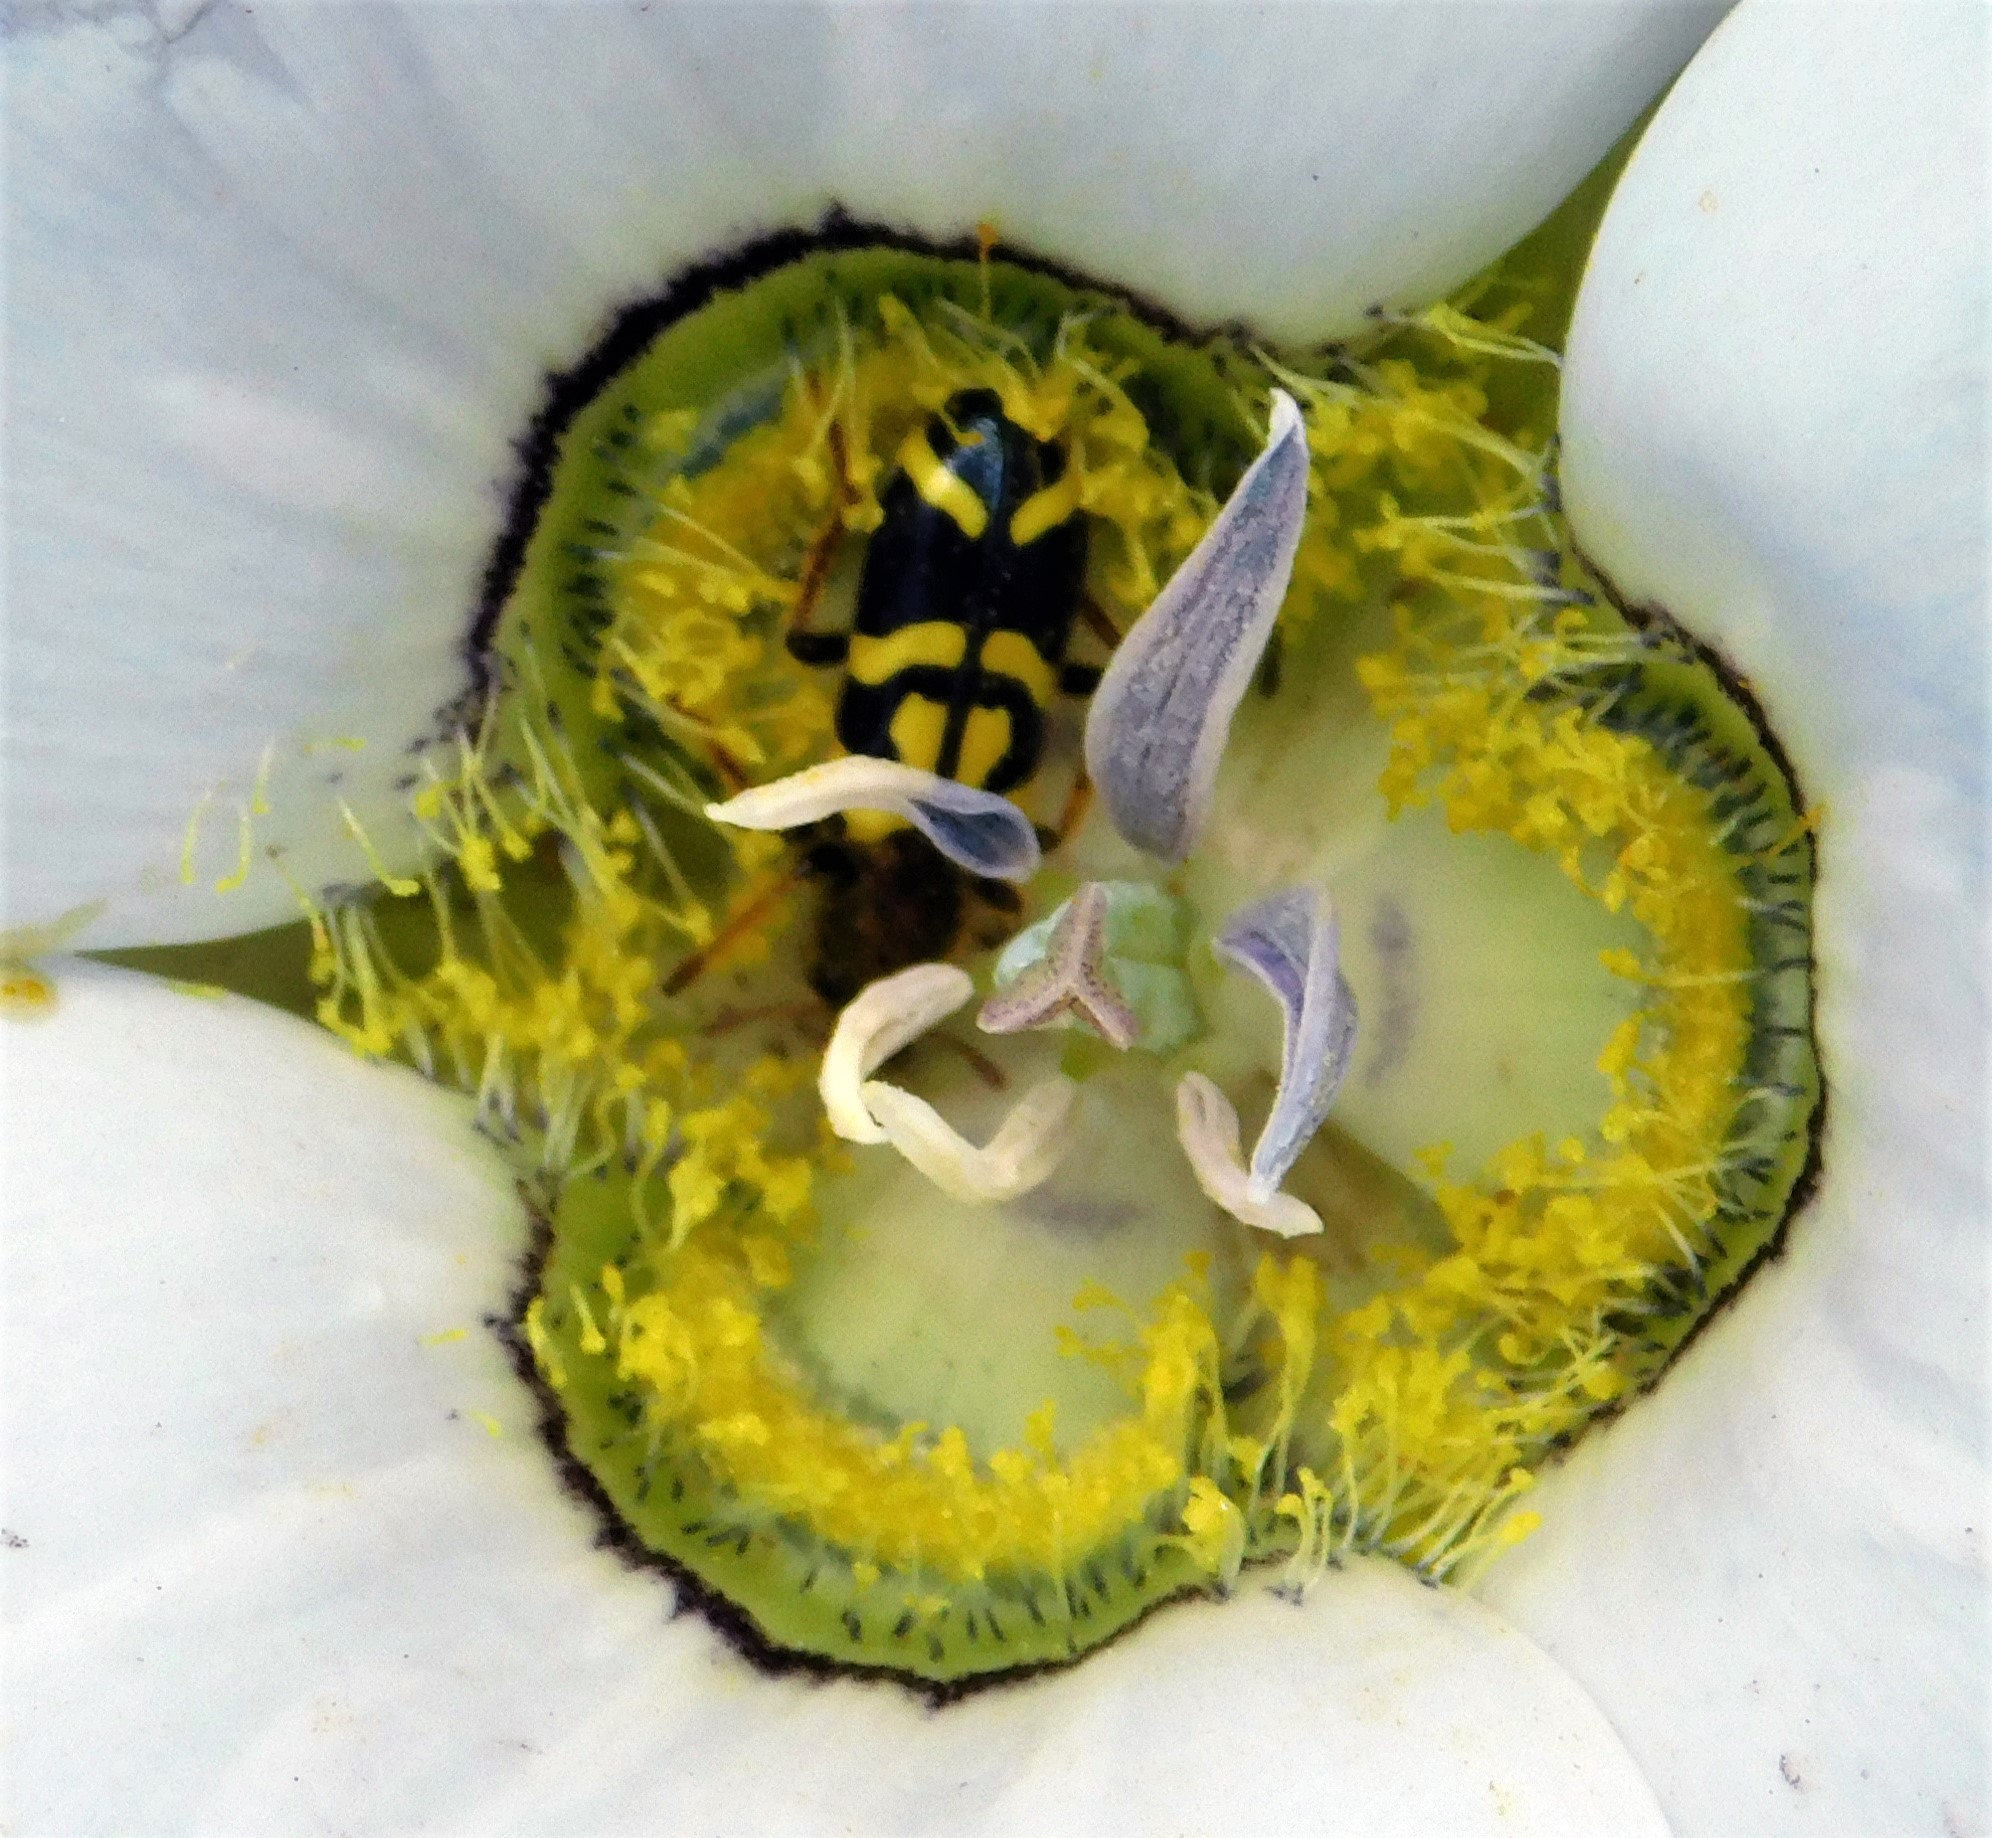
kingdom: Animalia
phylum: Arthropoda
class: Insecta
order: Coleoptera
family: Cleridae
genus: Trichodes
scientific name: Trichodes ornatus
